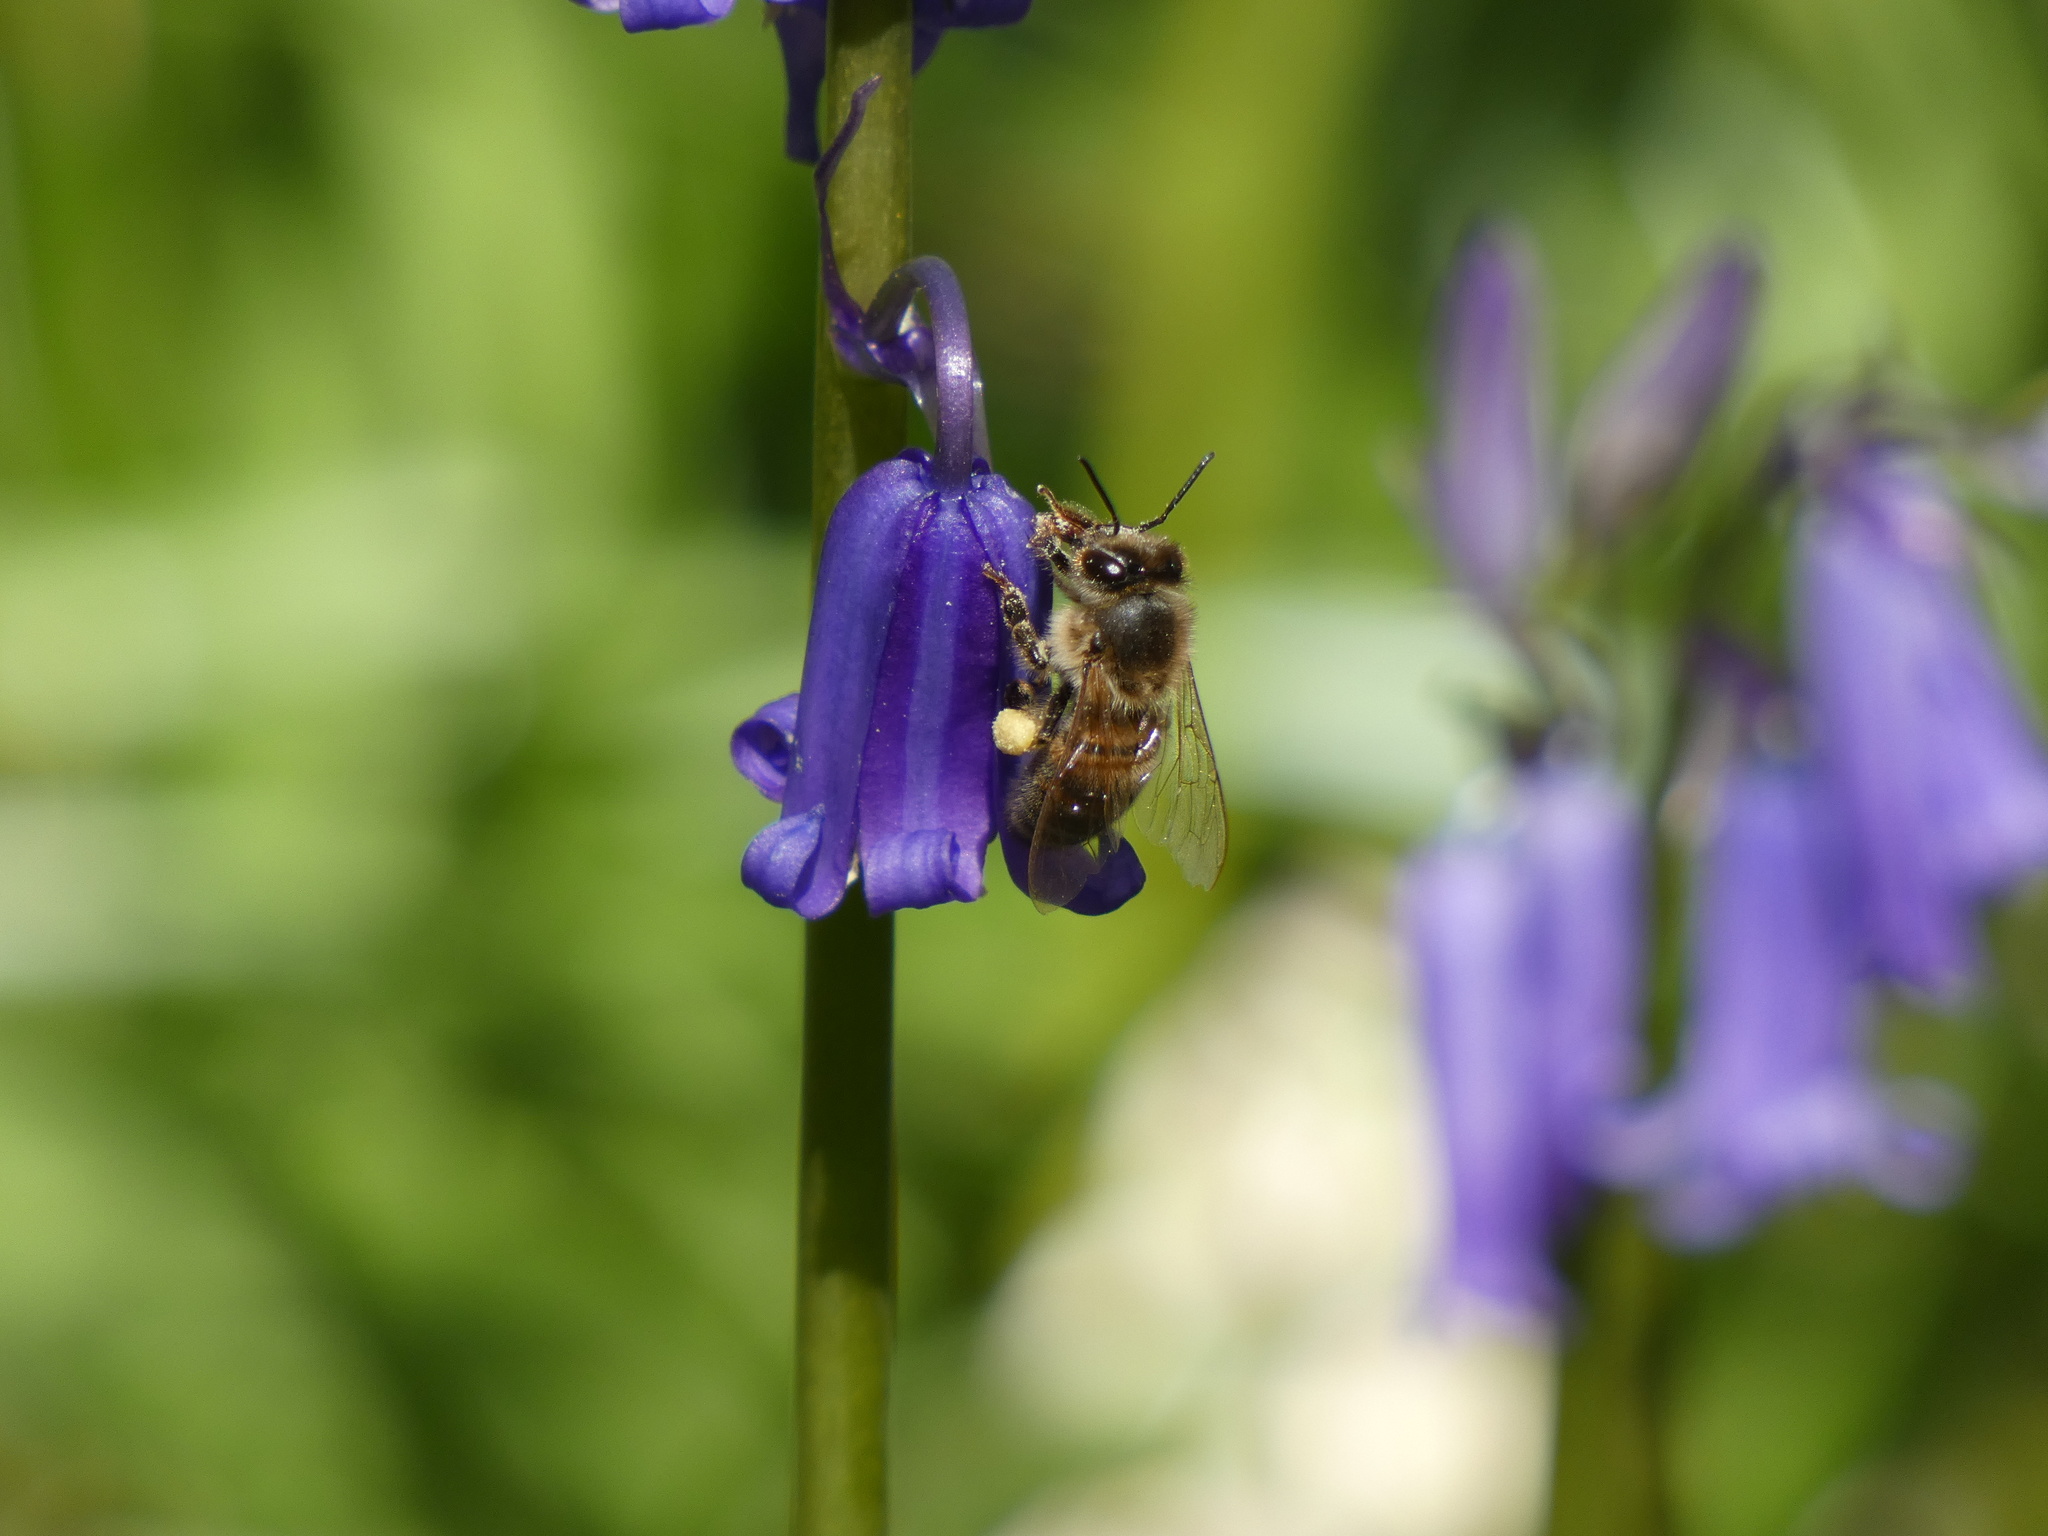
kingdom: Animalia
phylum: Arthropoda
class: Insecta
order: Hymenoptera
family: Apidae
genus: Apis
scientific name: Apis mellifera
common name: Honey bee
